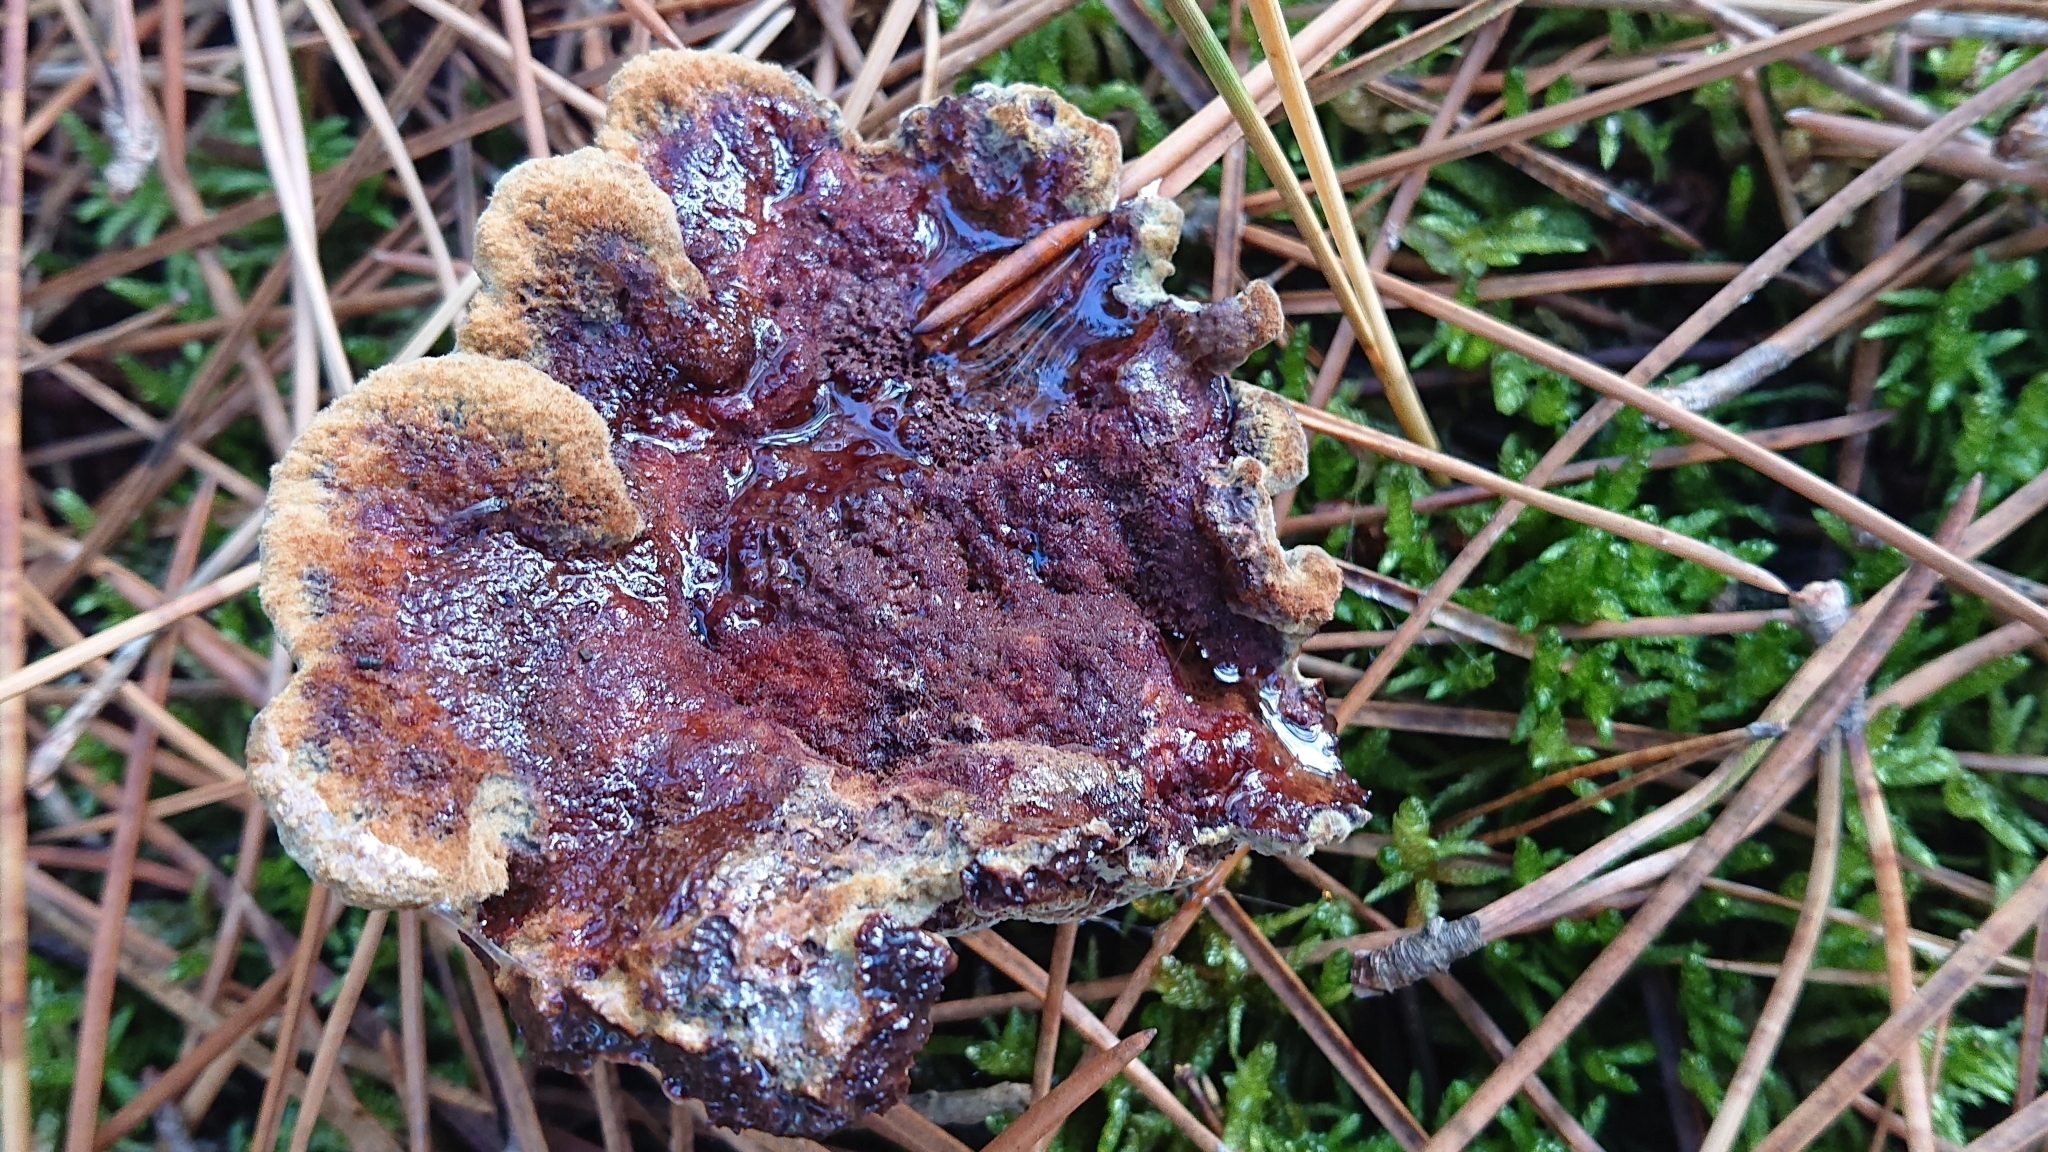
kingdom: Fungi
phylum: Basidiomycota
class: Agaricomycetes
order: Polyporales
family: Laetiporaceae
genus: Phaeolus
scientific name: Phaeolus schweinitzii
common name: Dyer's mazegill
